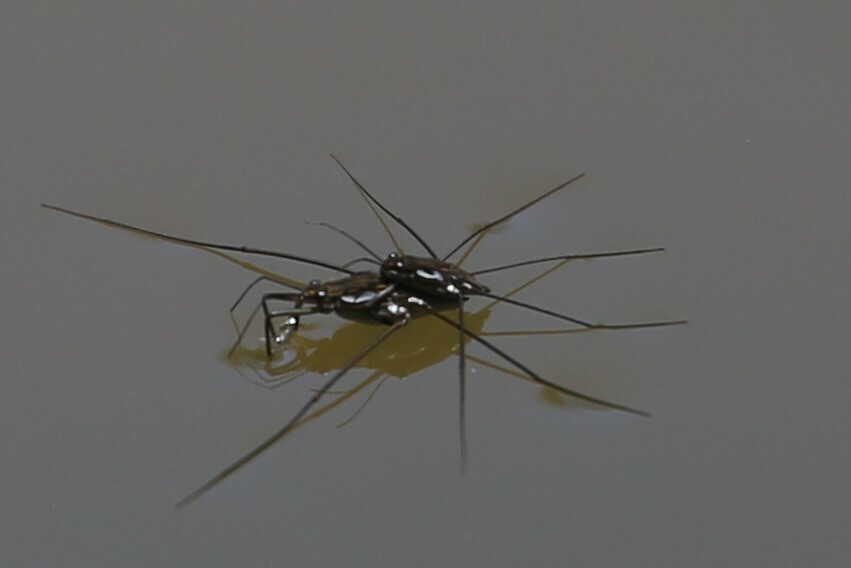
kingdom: Animalia
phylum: Arthropoda
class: Insecta
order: Hemiptera
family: Gerridae
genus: Tenagogerris
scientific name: Tenagogerris euphrosyne
